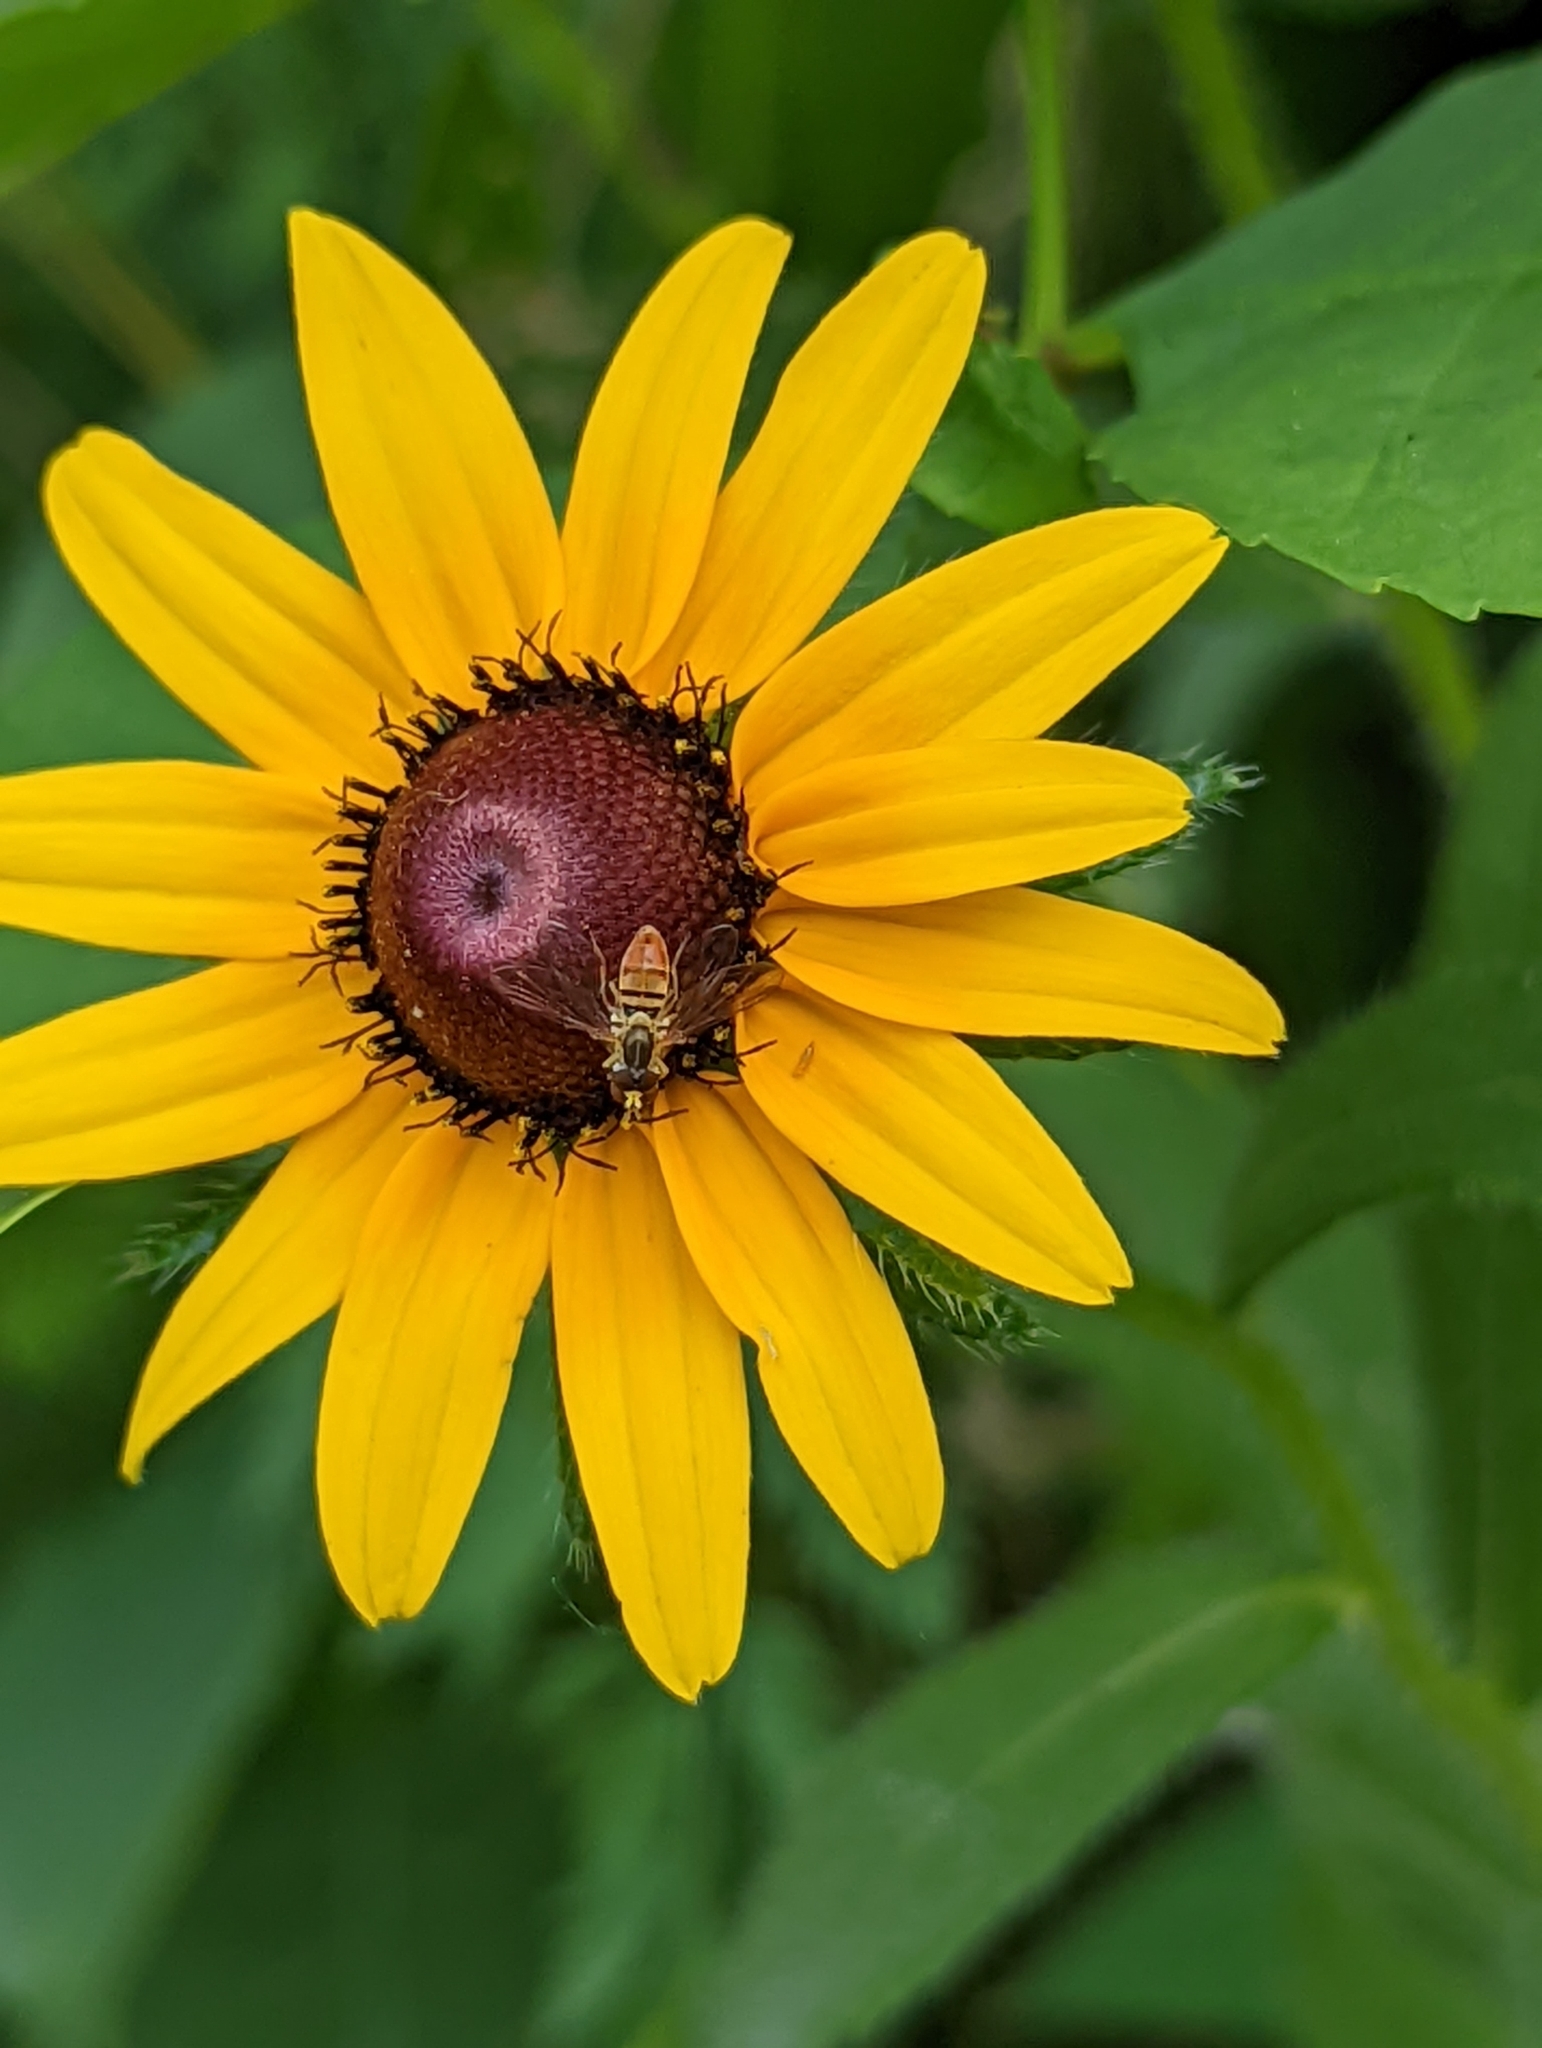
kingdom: Plantae
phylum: Tracheophyta
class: Magnoliopsida
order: Asterales
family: Asteraceae
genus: Rudbeckia
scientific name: Rudbeckia hirta
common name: Black-eyed-susan
